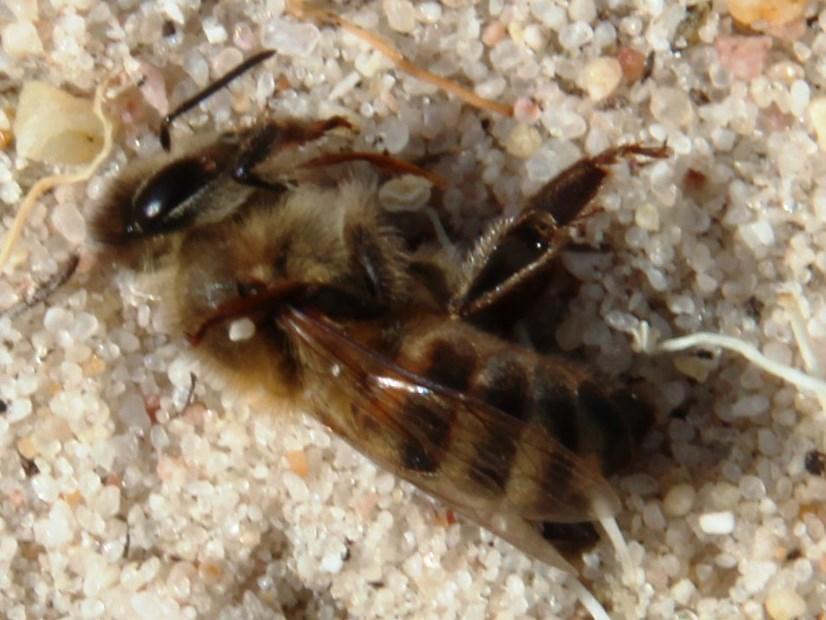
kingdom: Animalia
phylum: Arthropoda
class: Insecta
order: Hymenoptera
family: Apidae
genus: Apis
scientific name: Apis mellifera
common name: Honey bee
